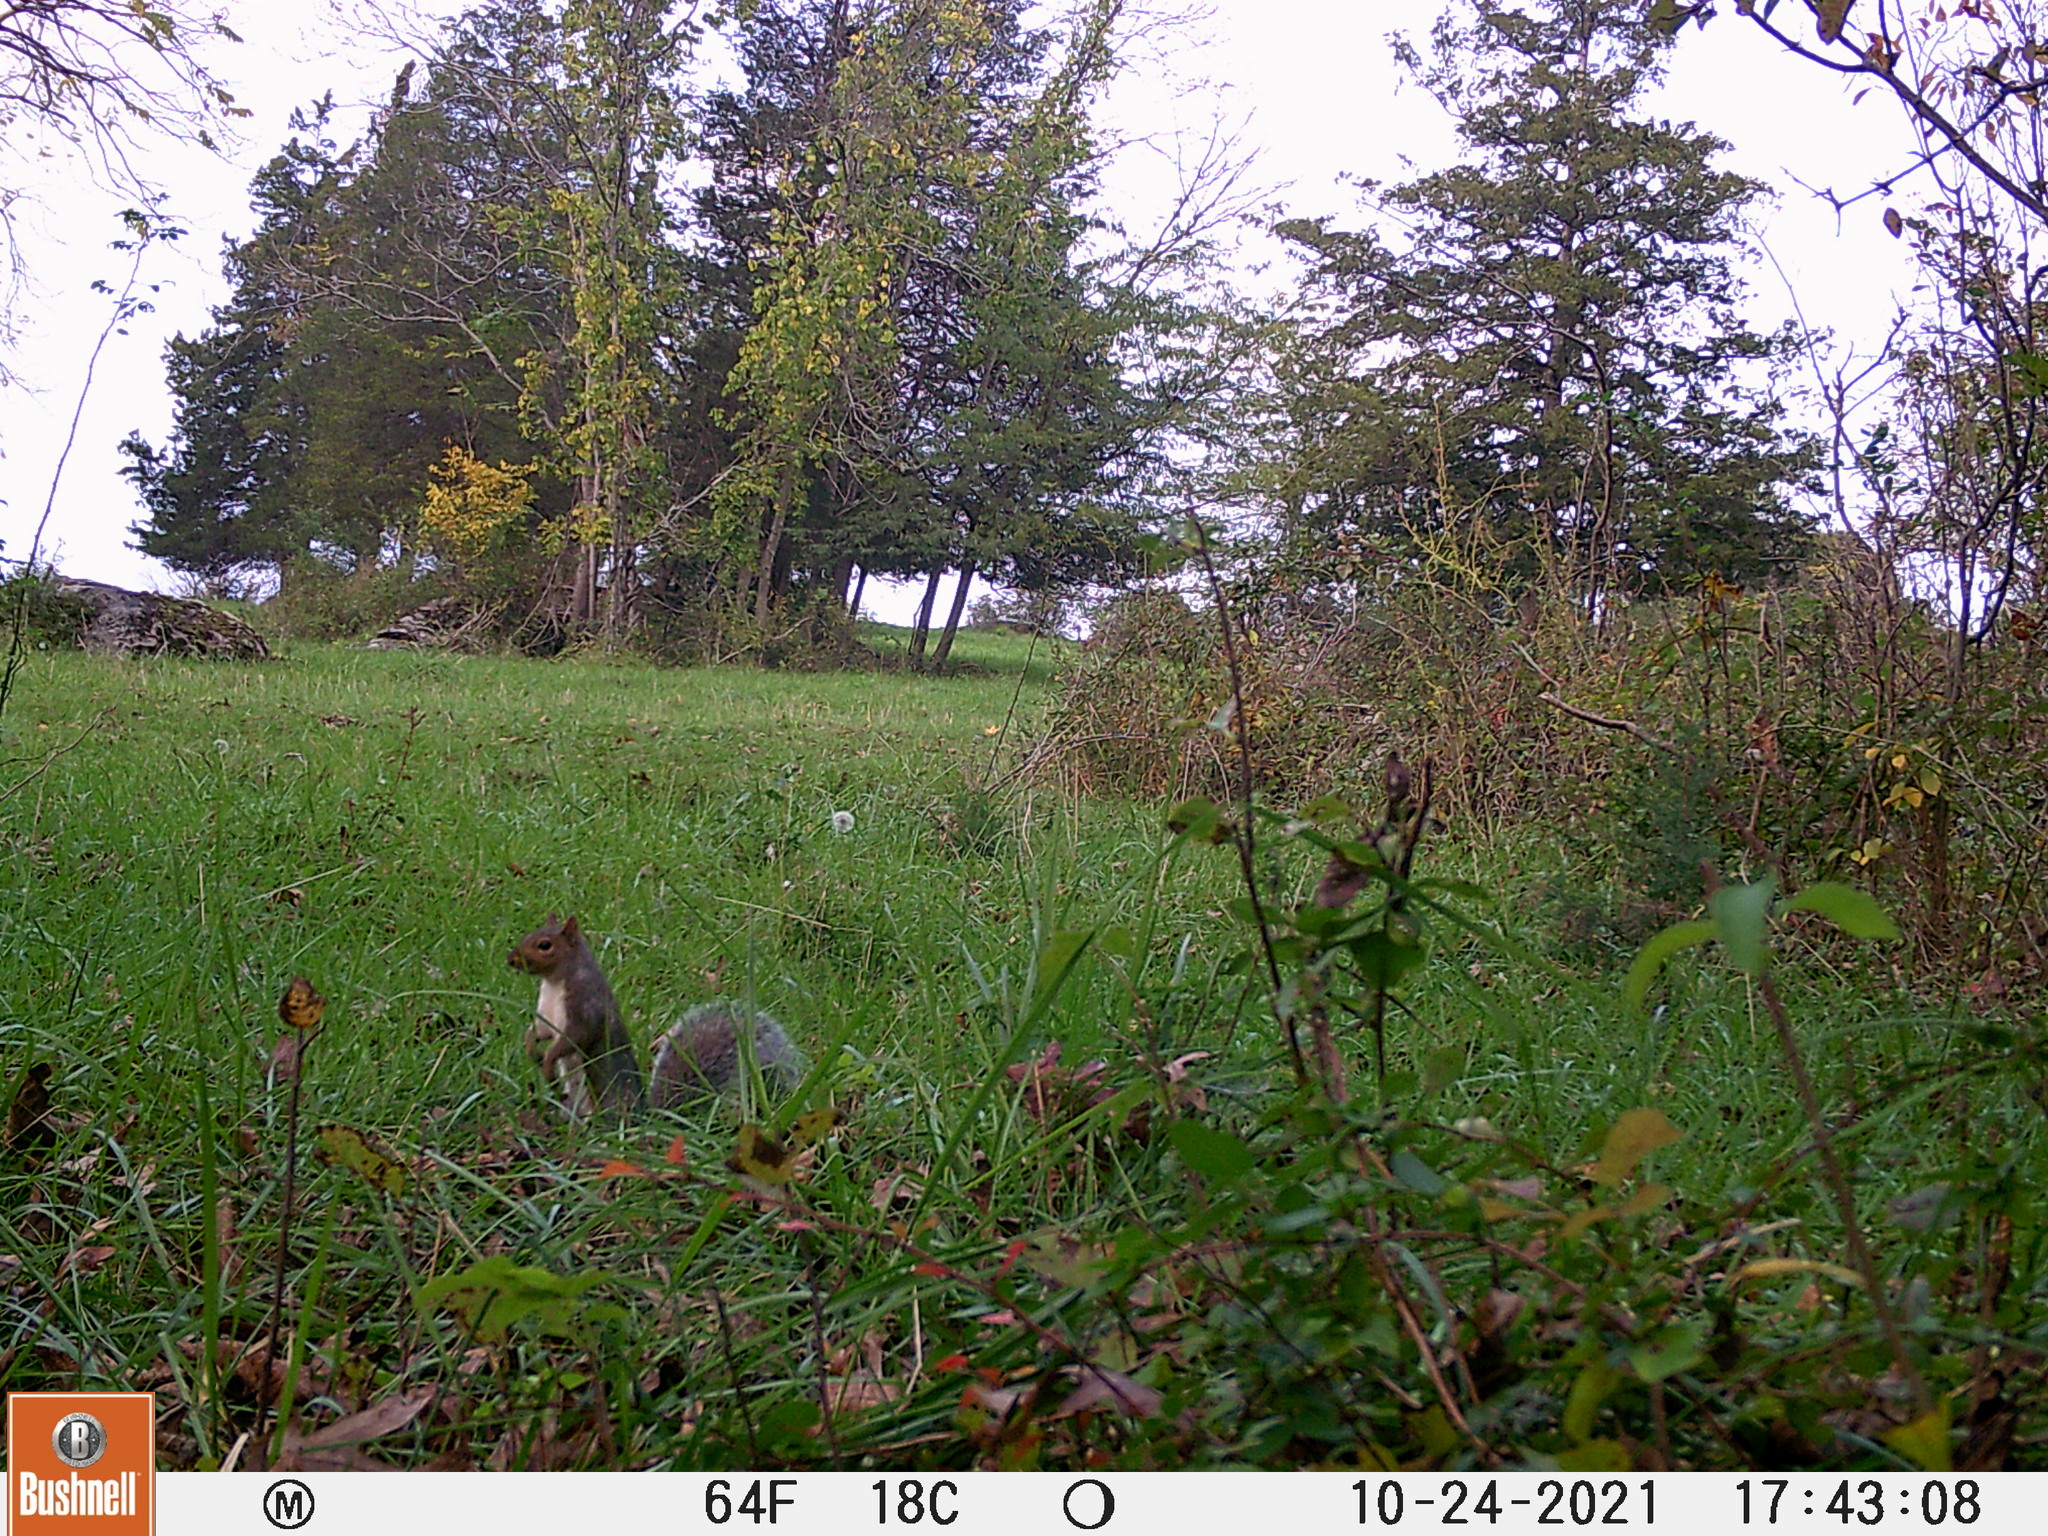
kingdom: Animalia
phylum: Chordata
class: Mammalia
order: Rodentia
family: Sciuridae
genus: Sciurus
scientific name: Sciurus carolinensis
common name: Eastern gray squirrel
